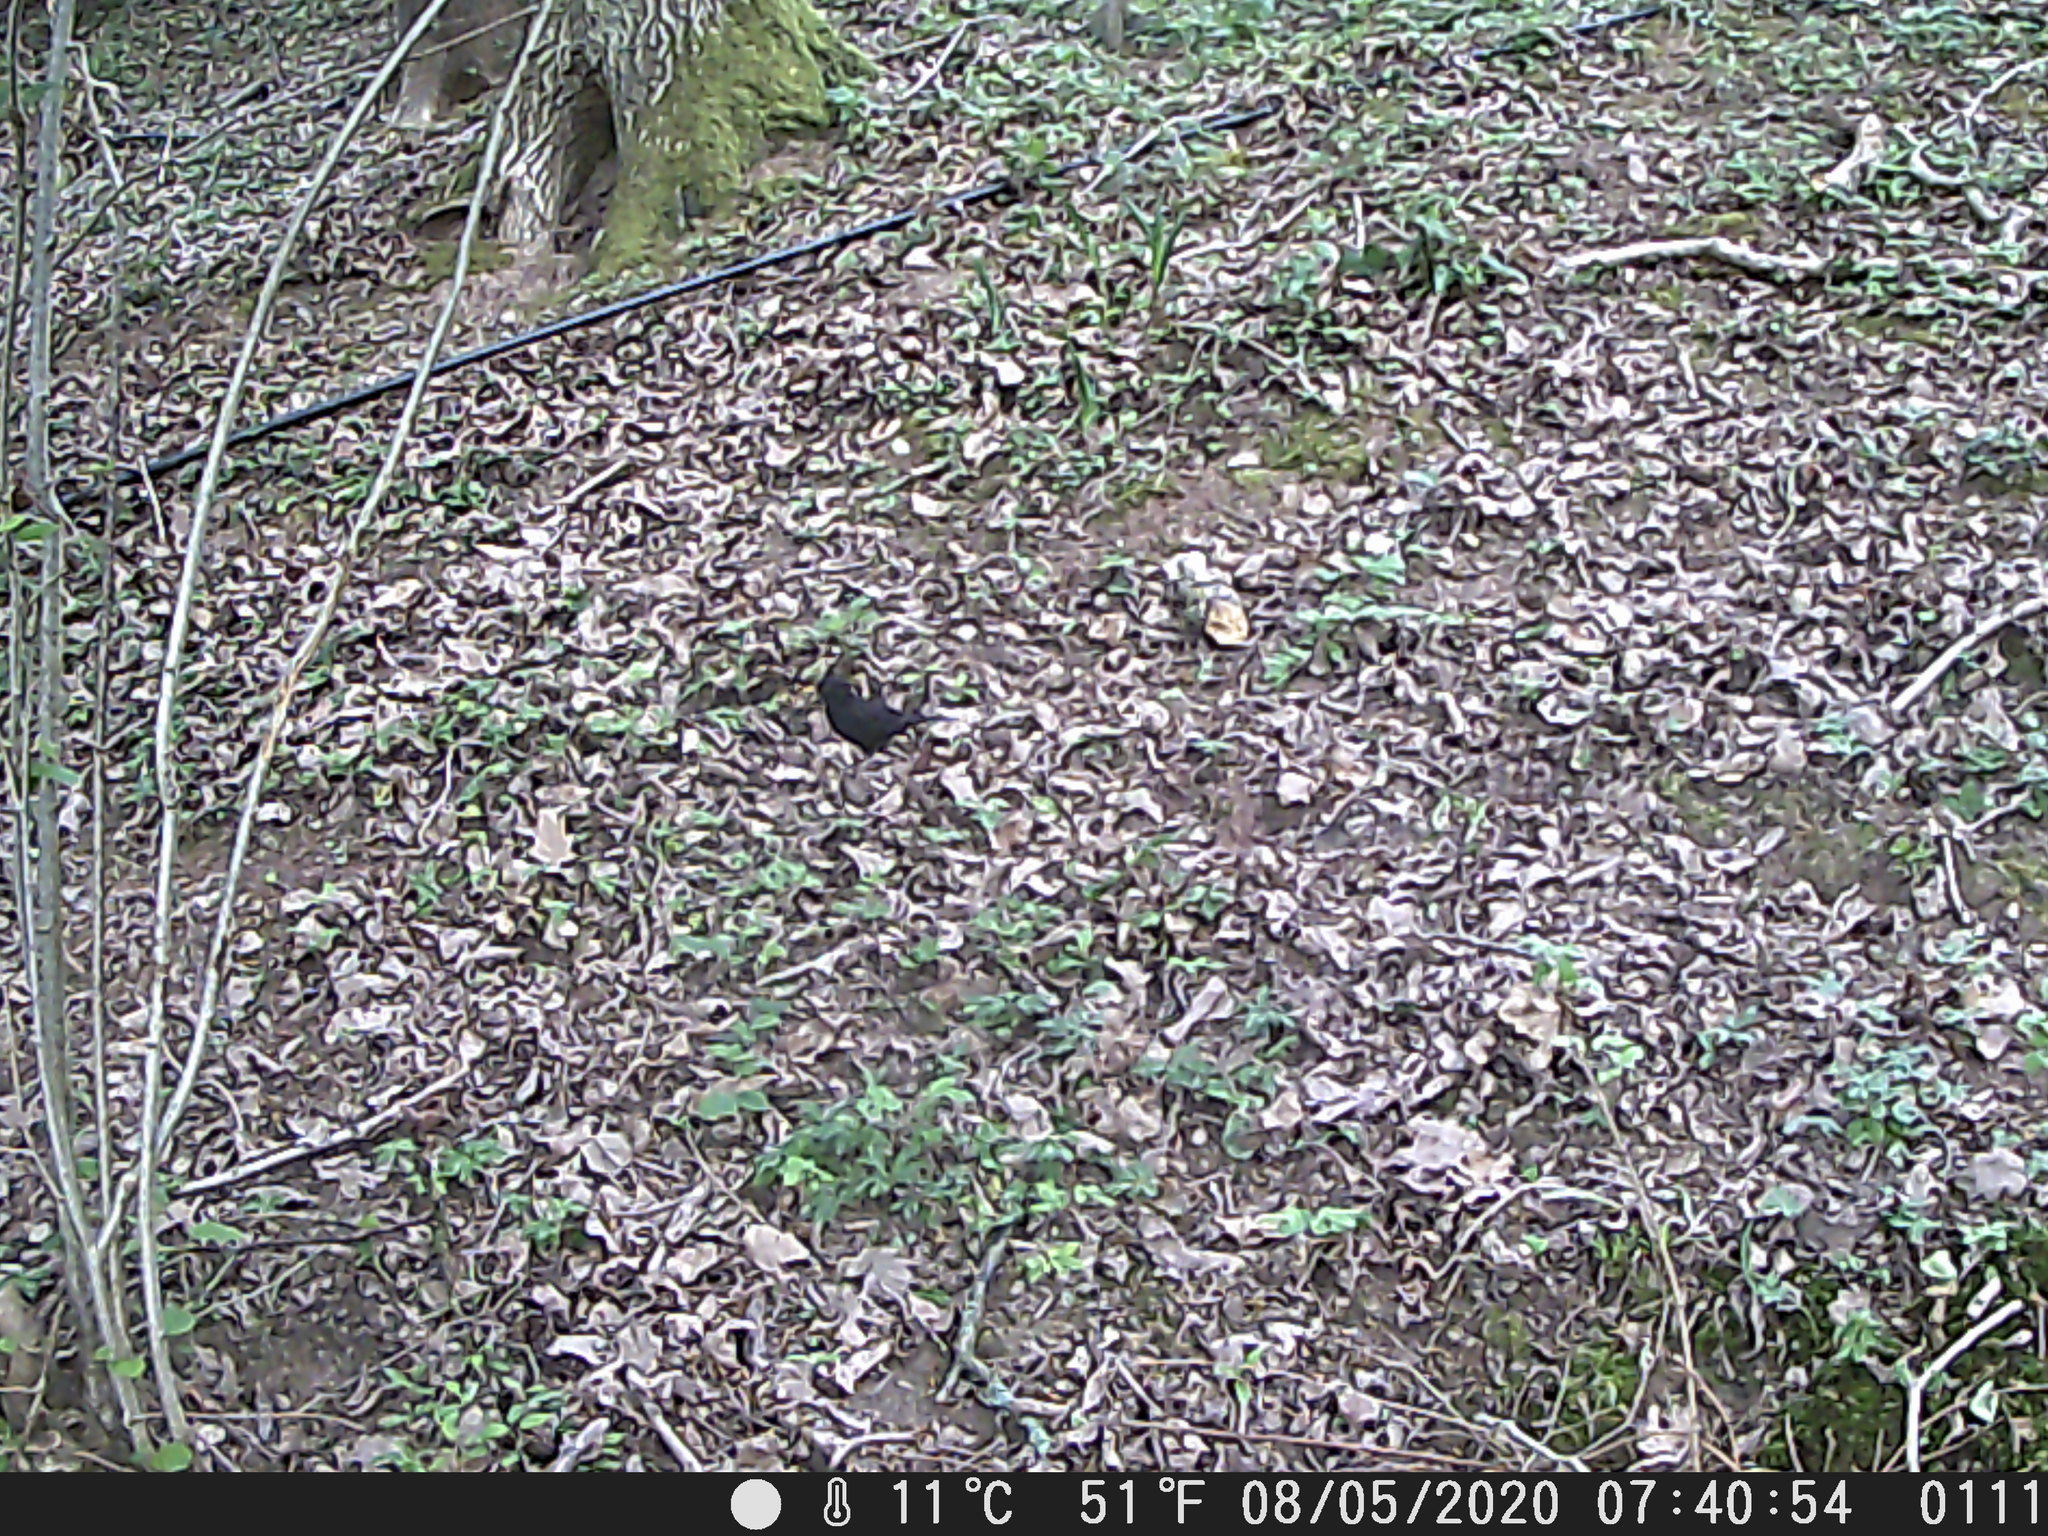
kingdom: Animalia
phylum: Chordata
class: Aves
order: Passeriformes
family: Turdidae
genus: Turdus
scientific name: Turdus merula
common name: Common blackbird
